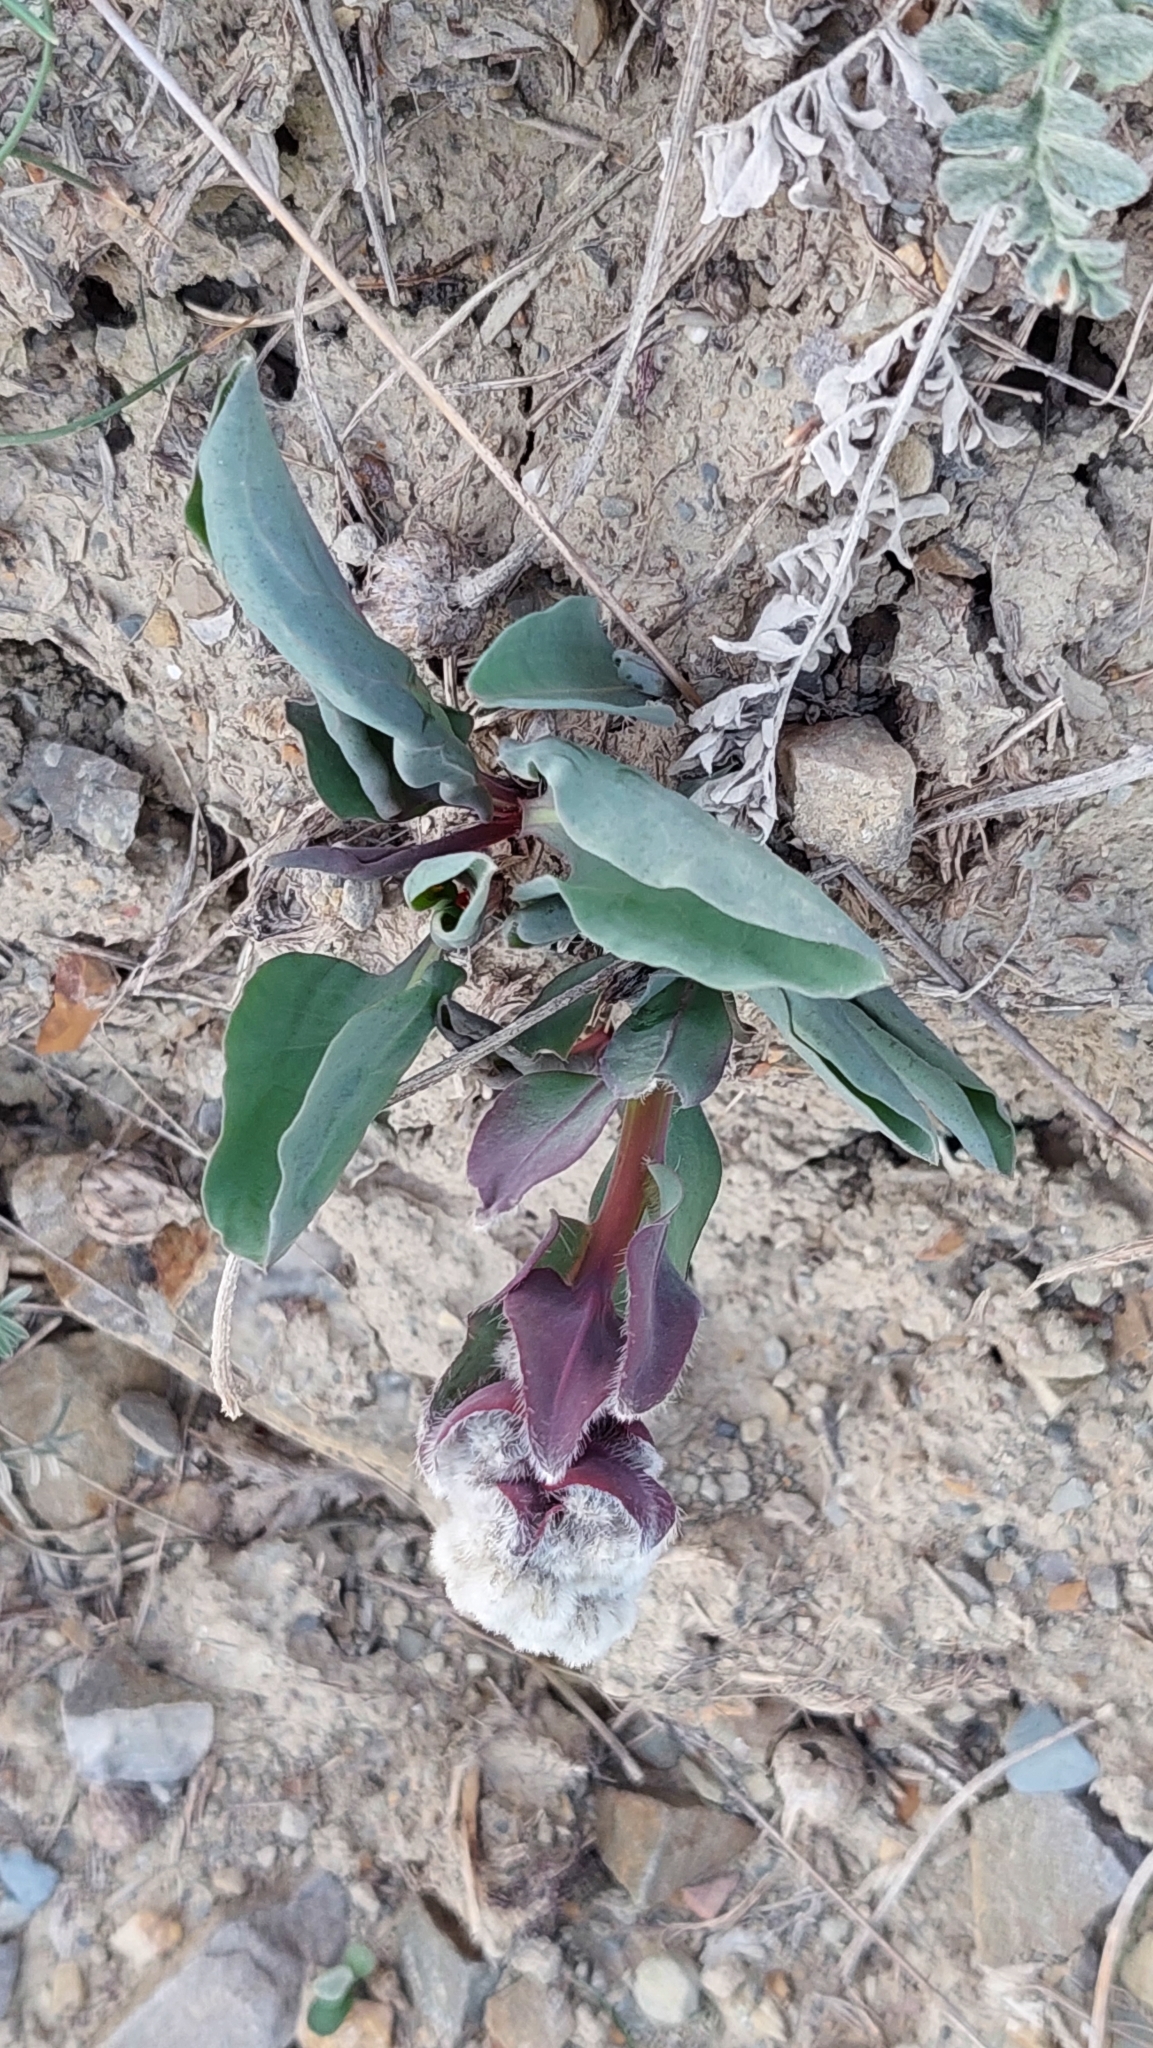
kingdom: Plantae
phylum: Tracheophyta
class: Magnoliopsida
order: Boraginales
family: Boraginaceae
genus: Rindera
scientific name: Rindera tetraspis
